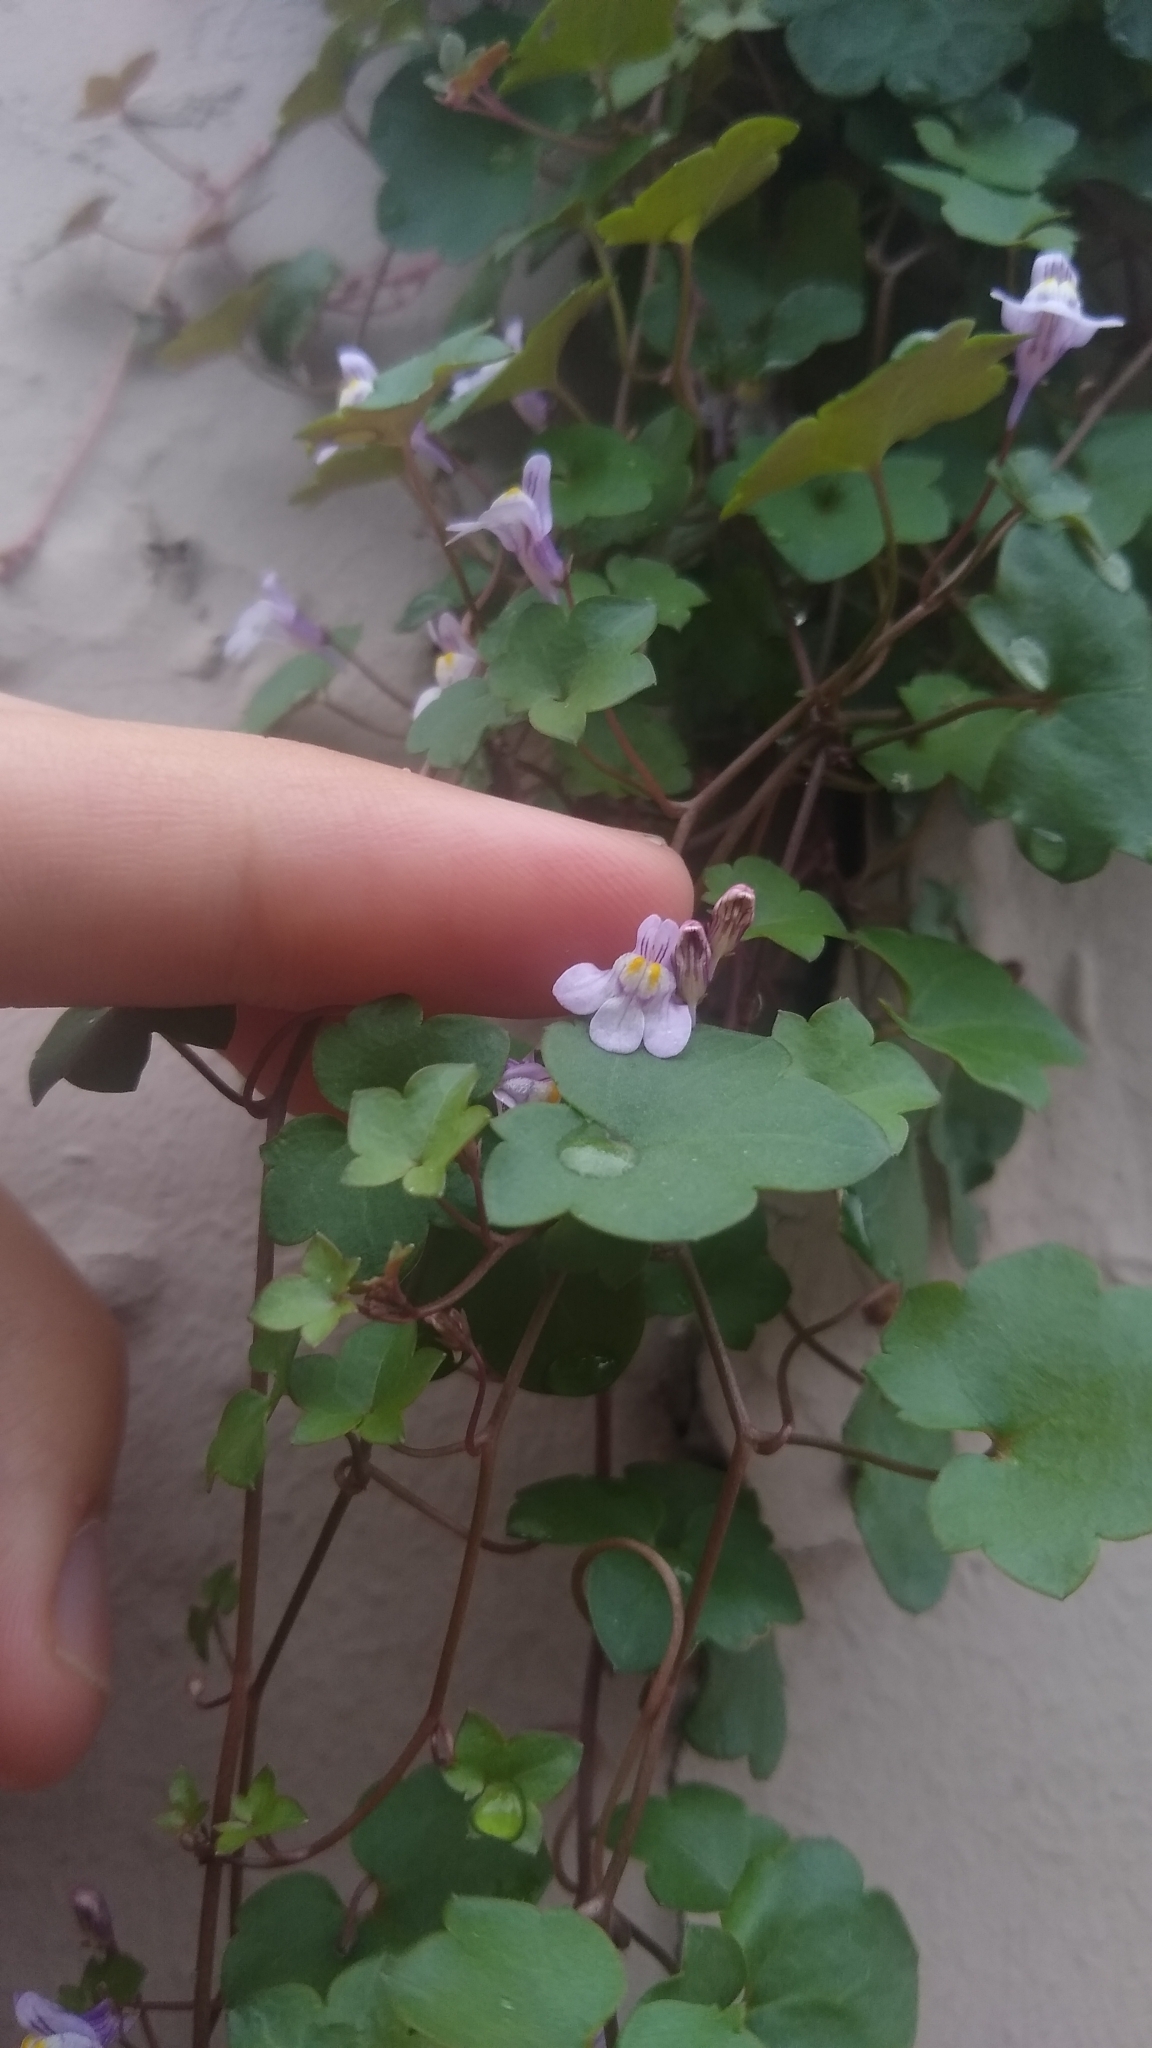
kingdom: Plantae
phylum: Tracheophyta
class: Magnoliopsida
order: Lamiales
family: Plantaginaceae
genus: Cymbalaria
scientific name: Cymbalaria muralis
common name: Ivy-leaved toadflax
